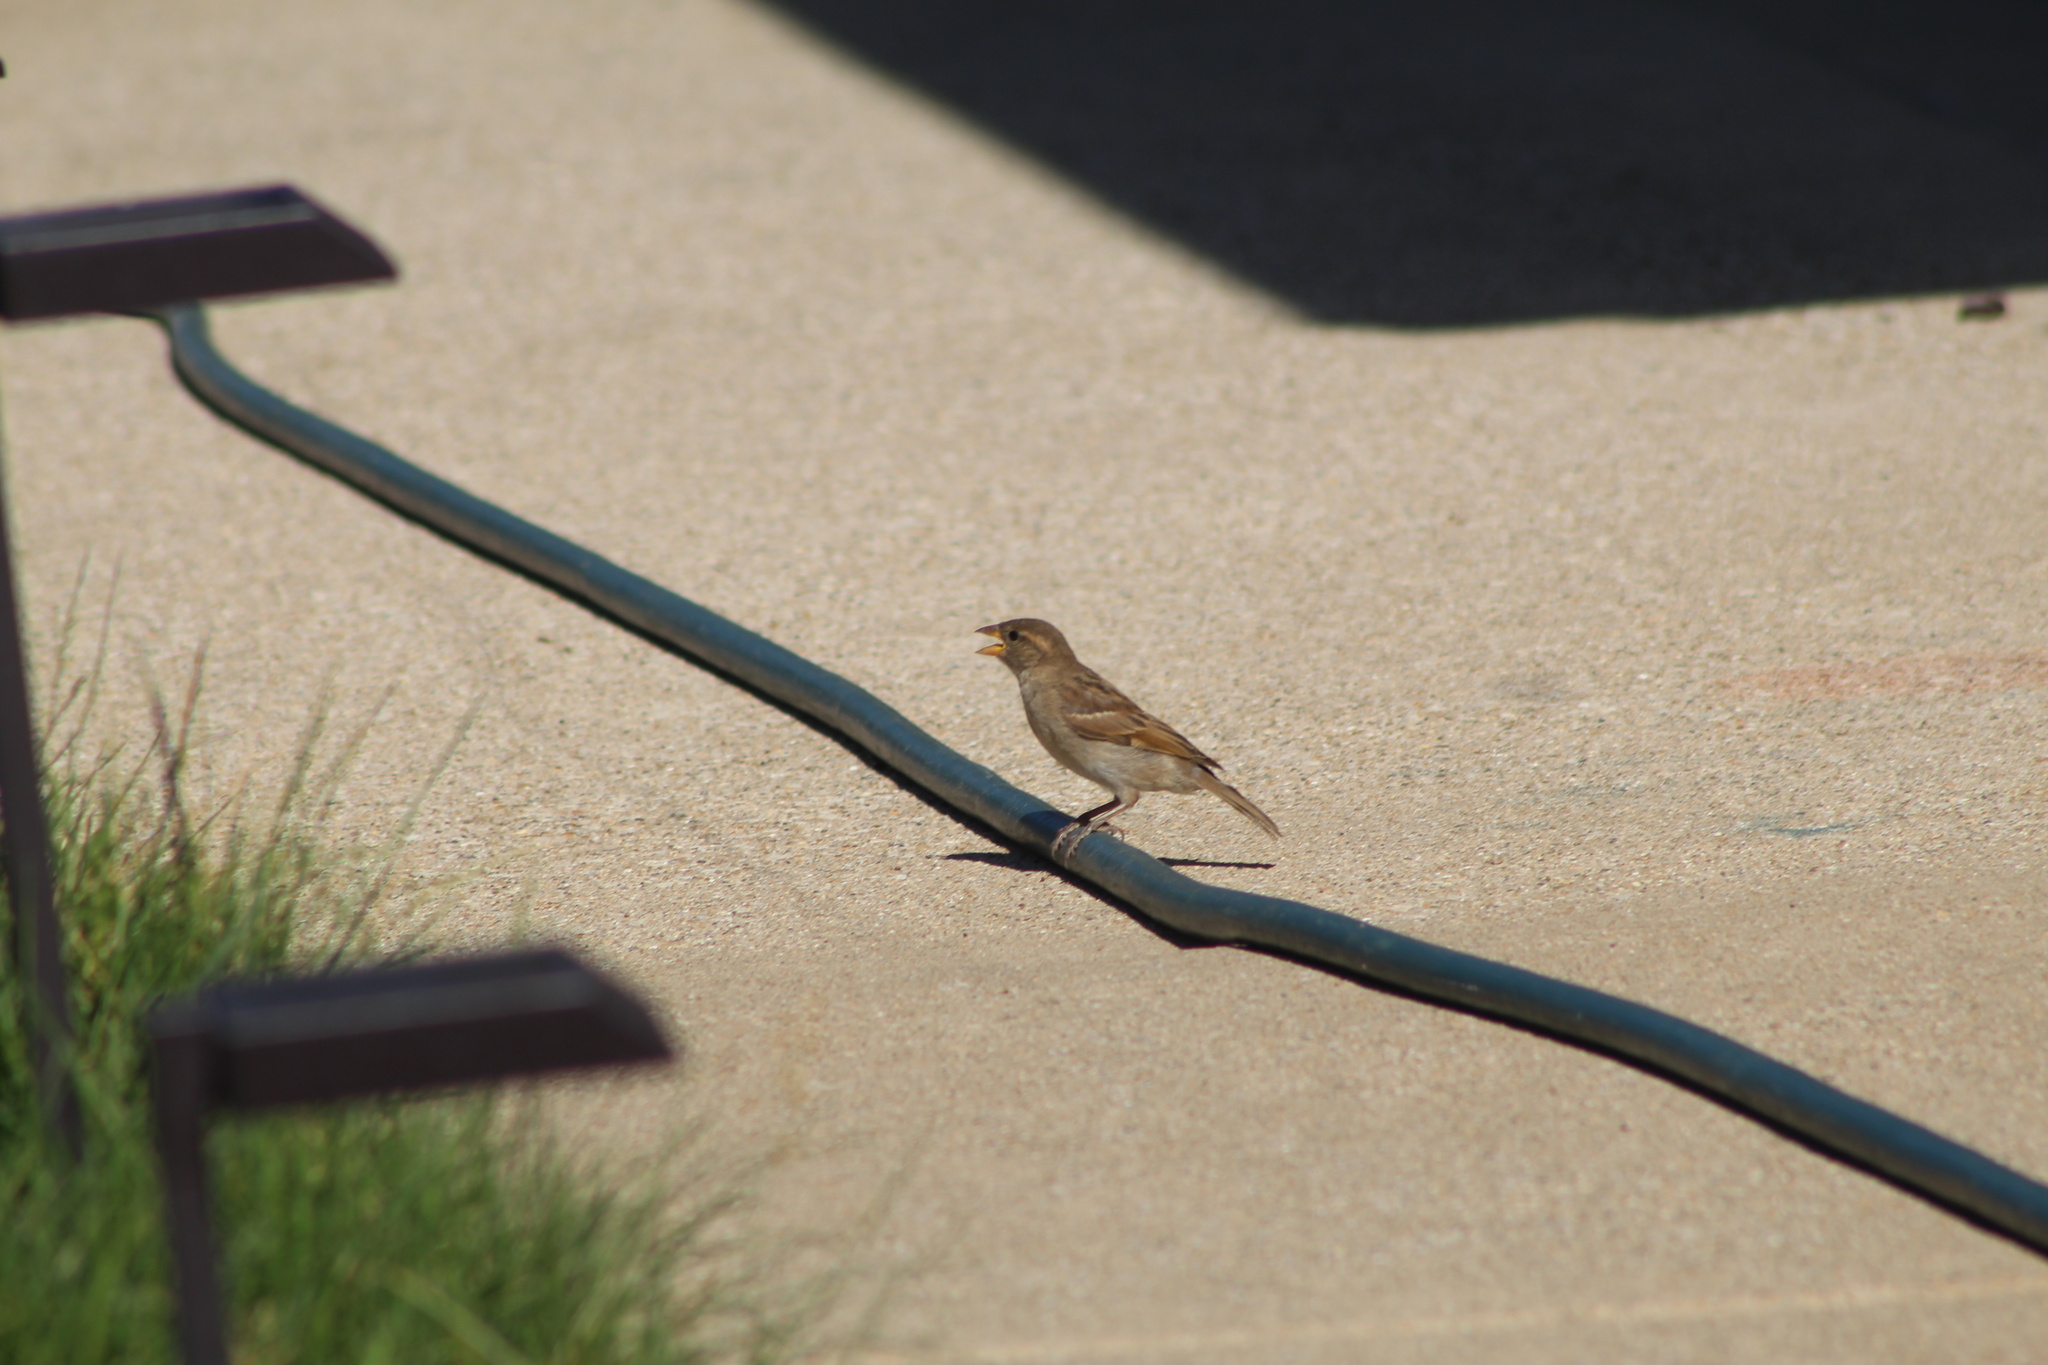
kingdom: Animalia
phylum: Chordata
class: Aves
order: Passeriformes
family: Passeridae
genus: Passer
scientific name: Passer domesticus
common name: House sparrow
